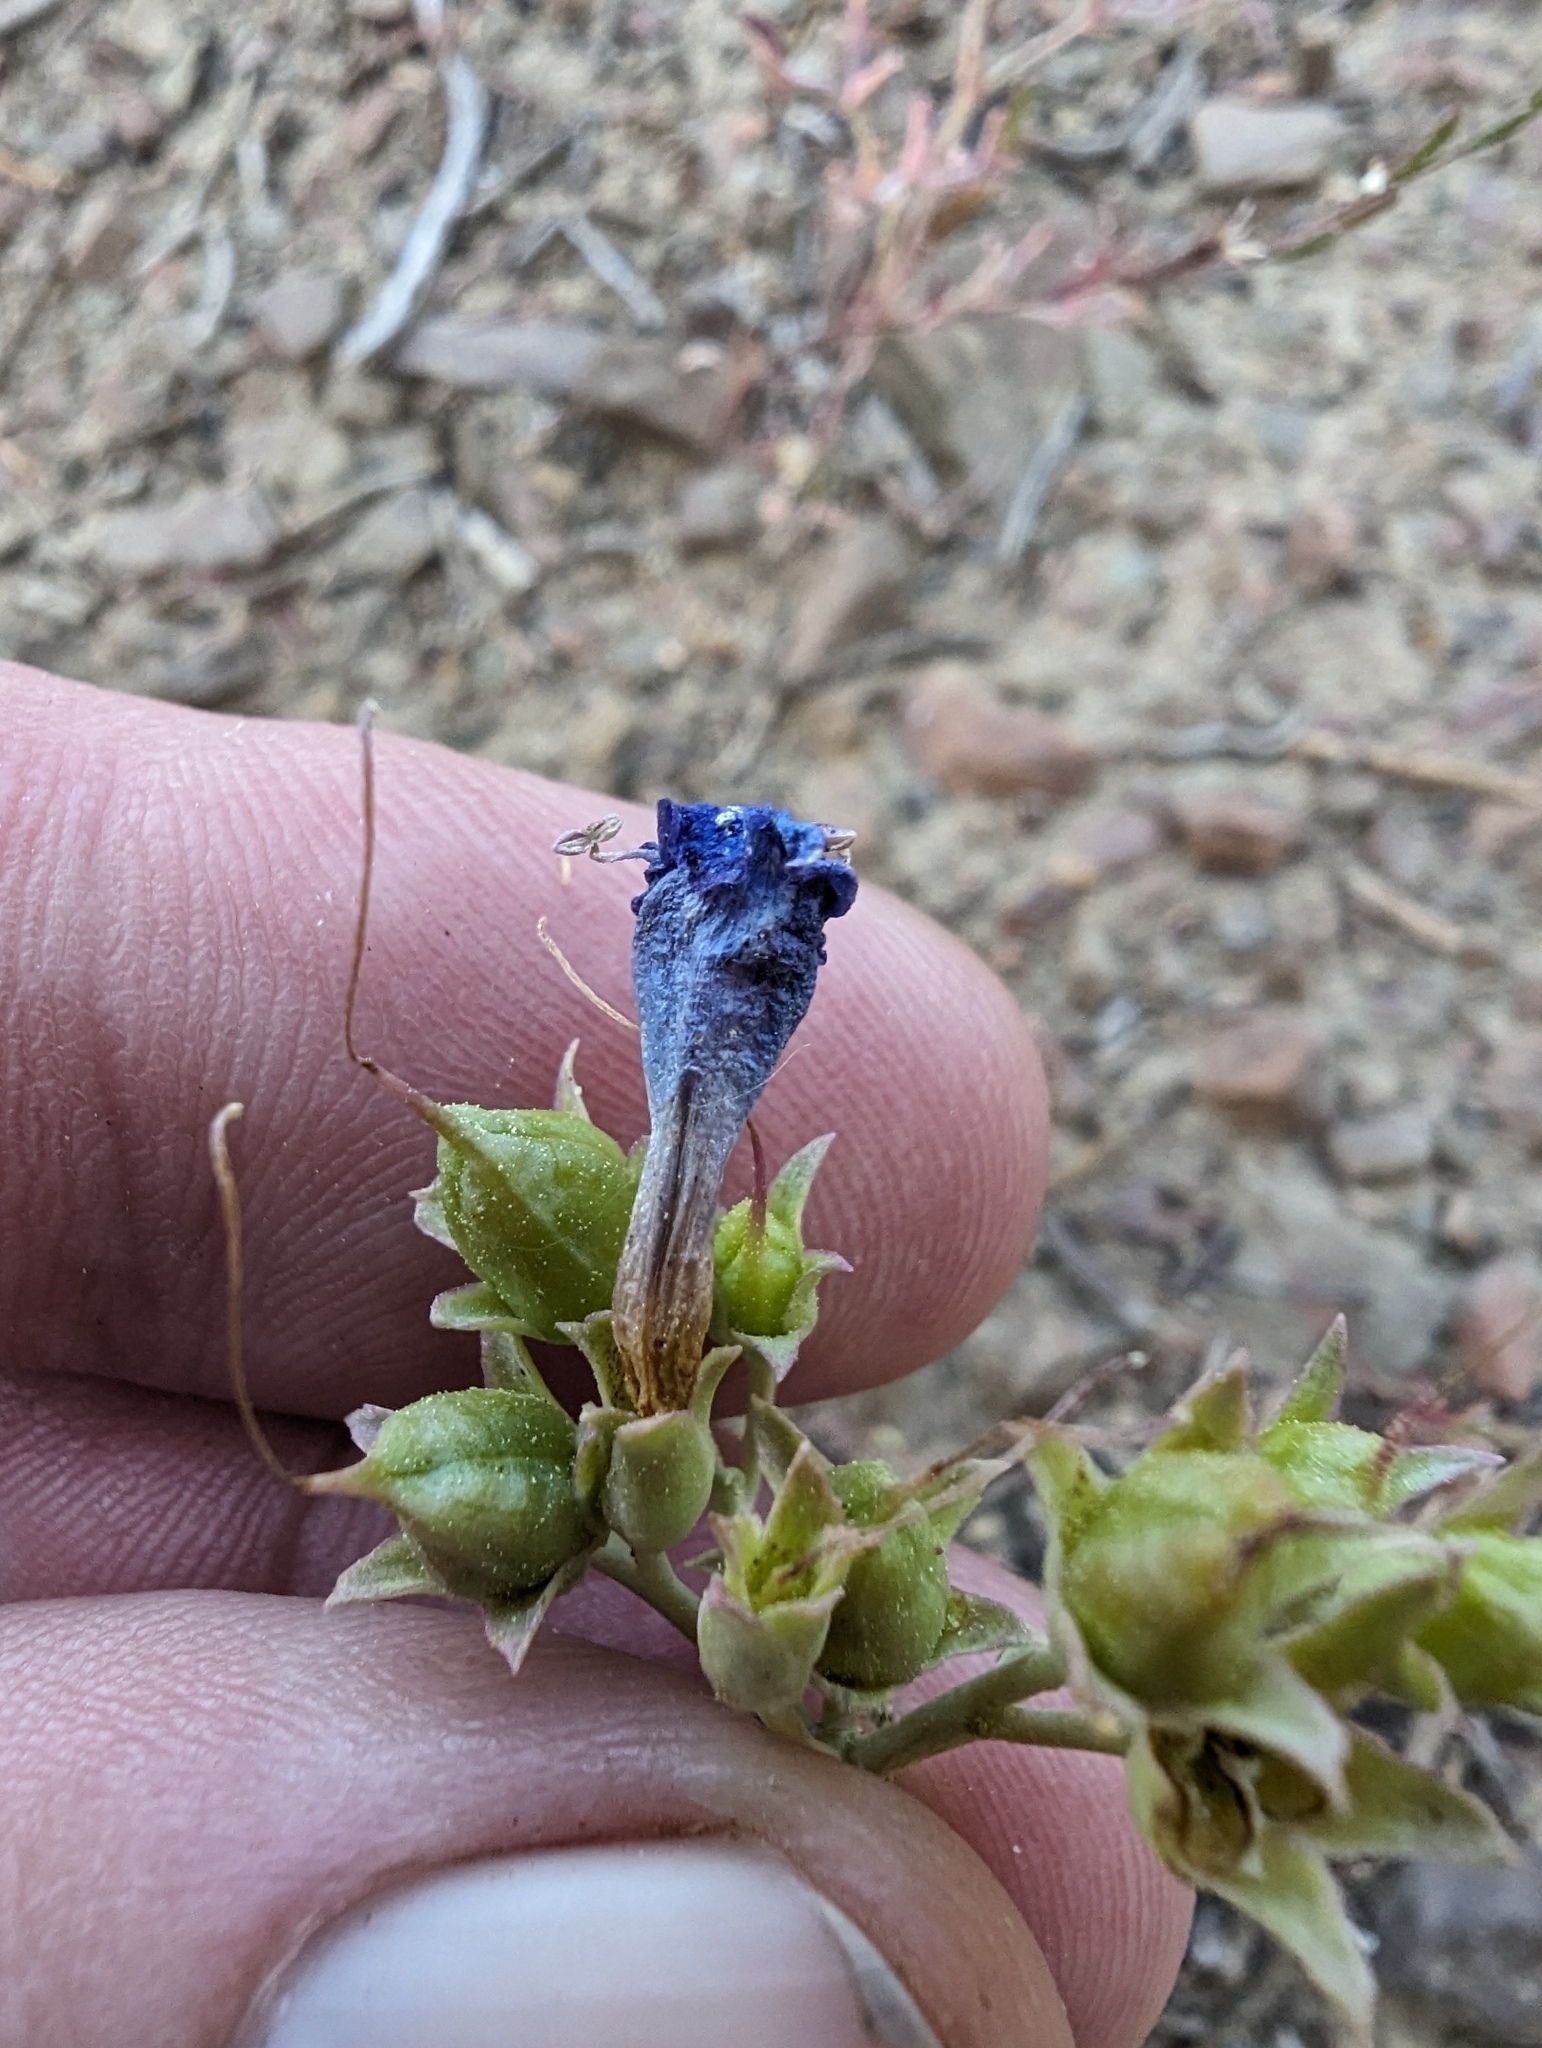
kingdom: Plantae
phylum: Tracheophyta
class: Magnoliopsida
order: Lamiales
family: Plantaginaceae
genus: Penstemon
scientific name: Penstemon patens
